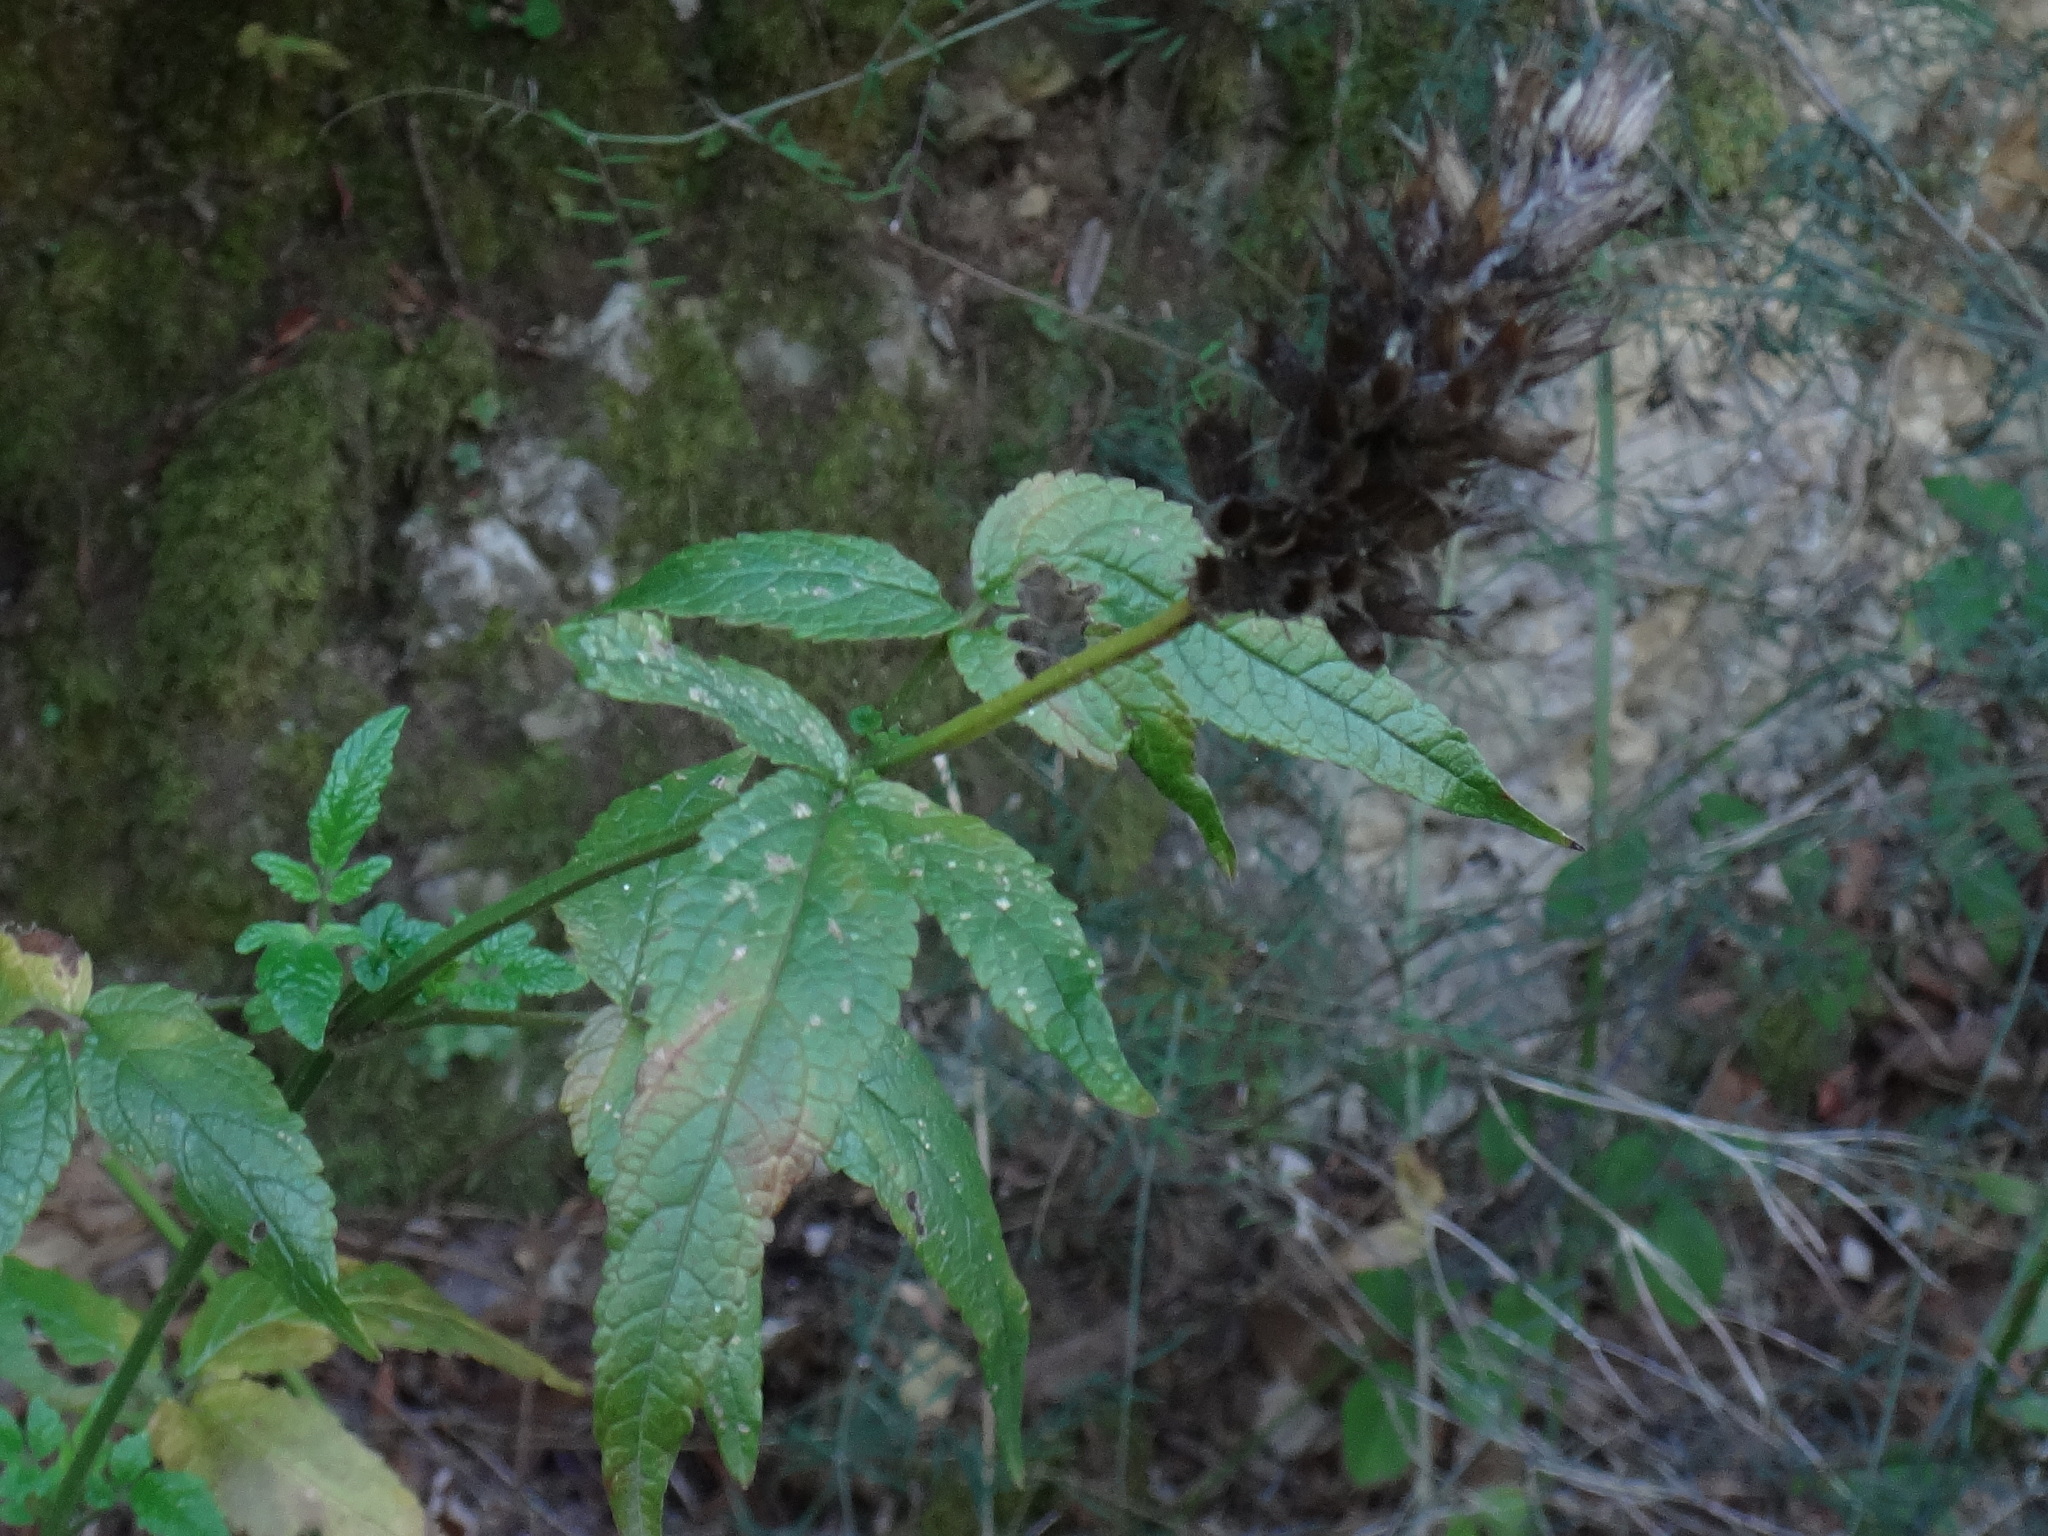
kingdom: Plantae
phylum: Tracheophyta
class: Magnoliopsida
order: Lamiales
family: Lamiaceae
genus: Cedronella
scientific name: Cedronella canariensis
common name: Canary islands balm
